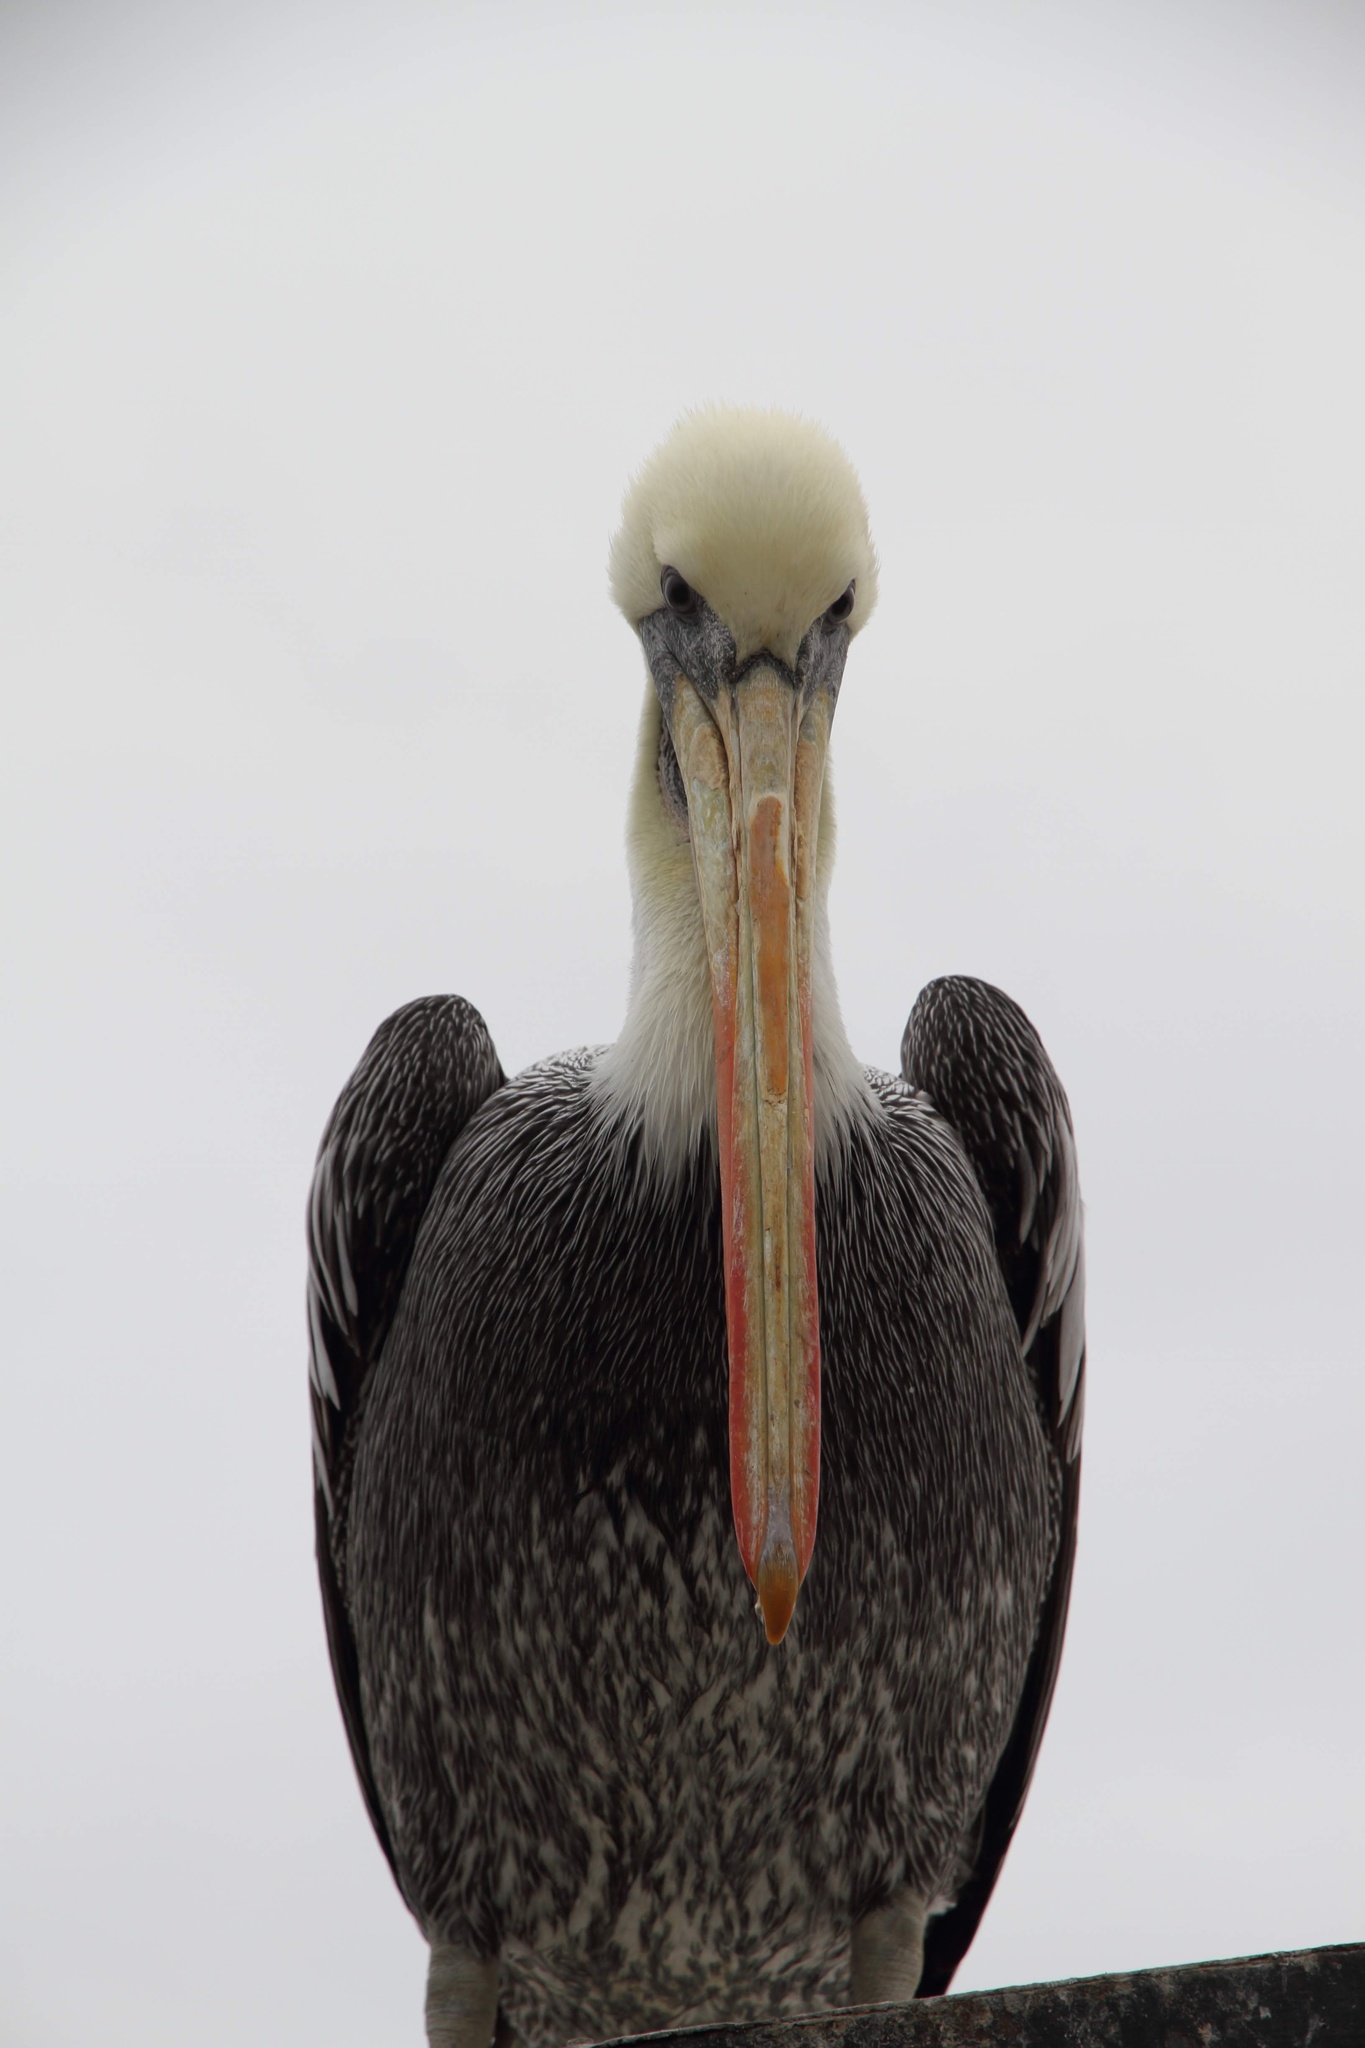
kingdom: Animalia
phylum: Chordata
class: Aves
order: Pelecaniformes
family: Pelecanidae
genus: Pelecanus
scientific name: Pelecanus thagus
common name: Peruvian pelican
